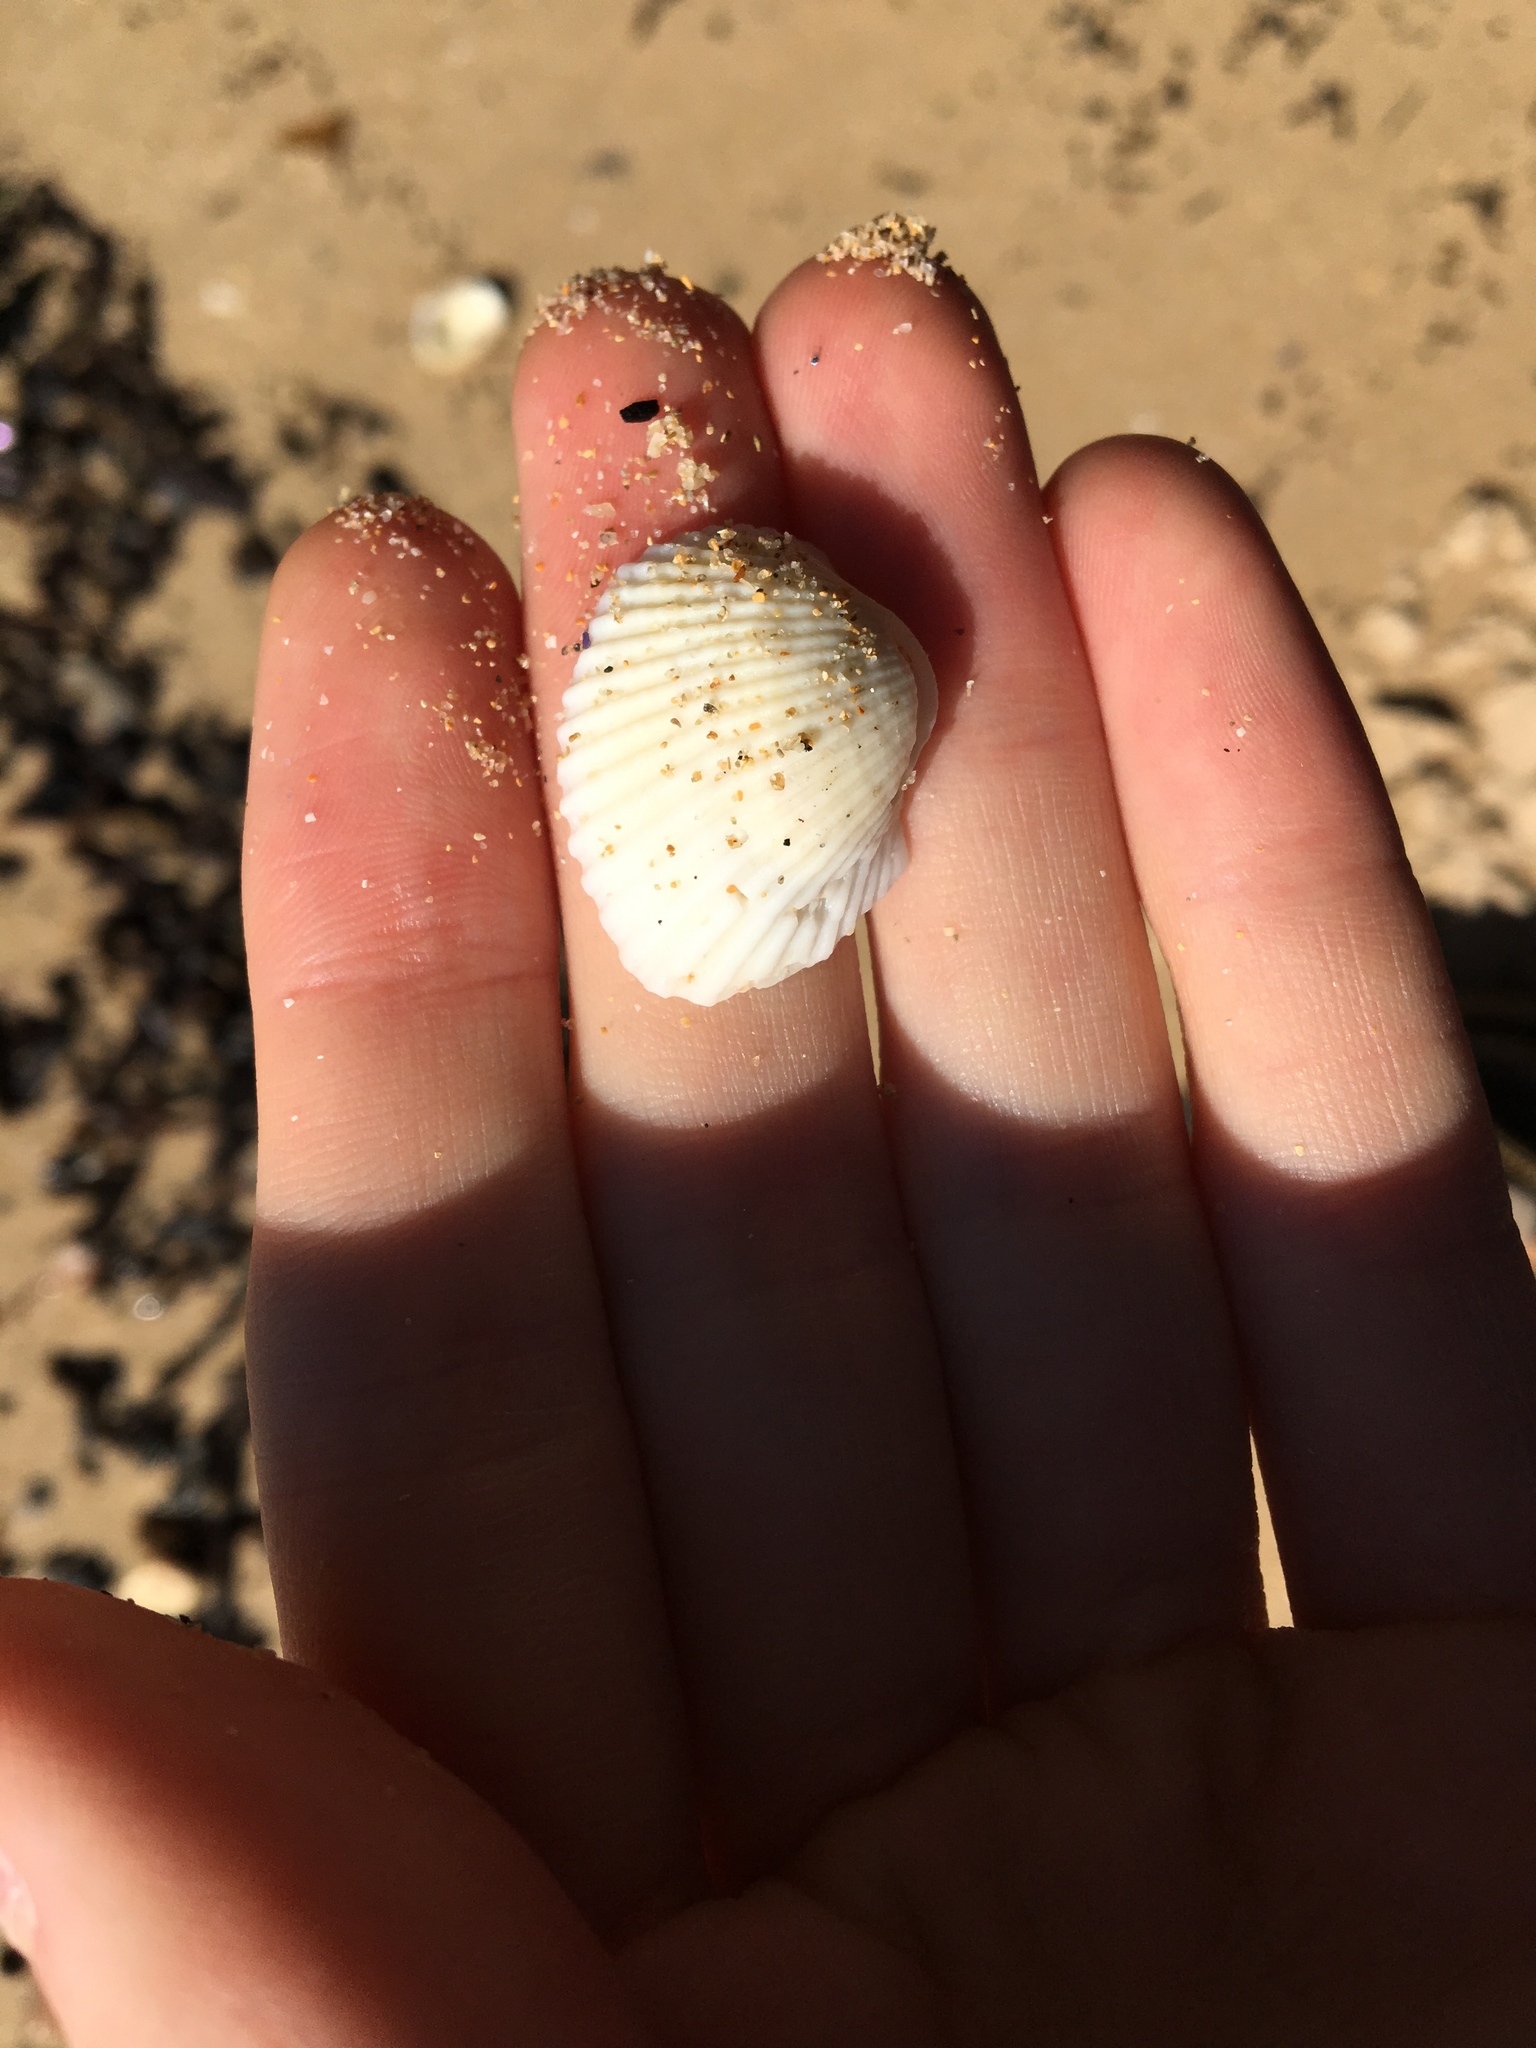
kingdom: Animalia
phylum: Mollusca
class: Bivalvia
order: Arcida
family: Arcidae
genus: Anadara
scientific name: Anadara trapezia
